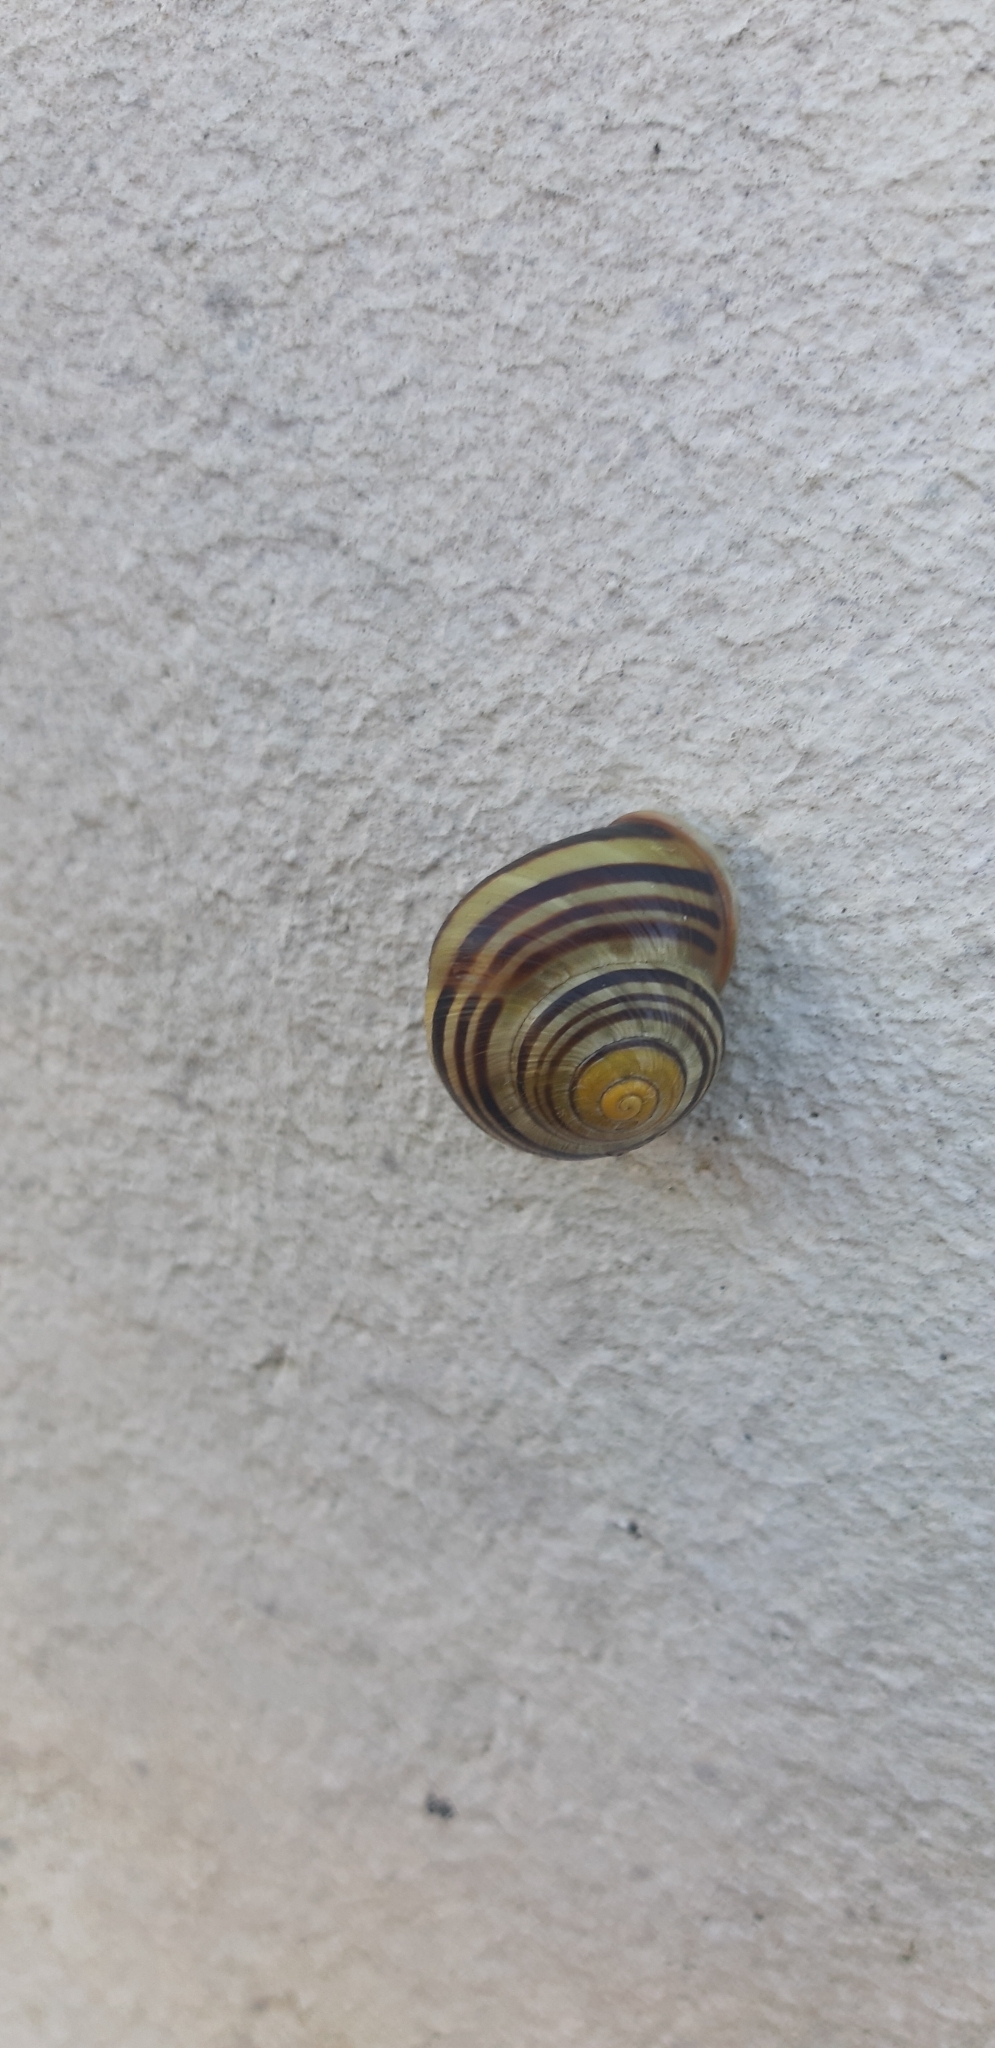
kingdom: Animalia
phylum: Mollusca
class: Gastropoda
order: Stylommatophora
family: Helicidae
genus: Cepaea
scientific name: Cepaea nemoralis
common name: Grovesnail
